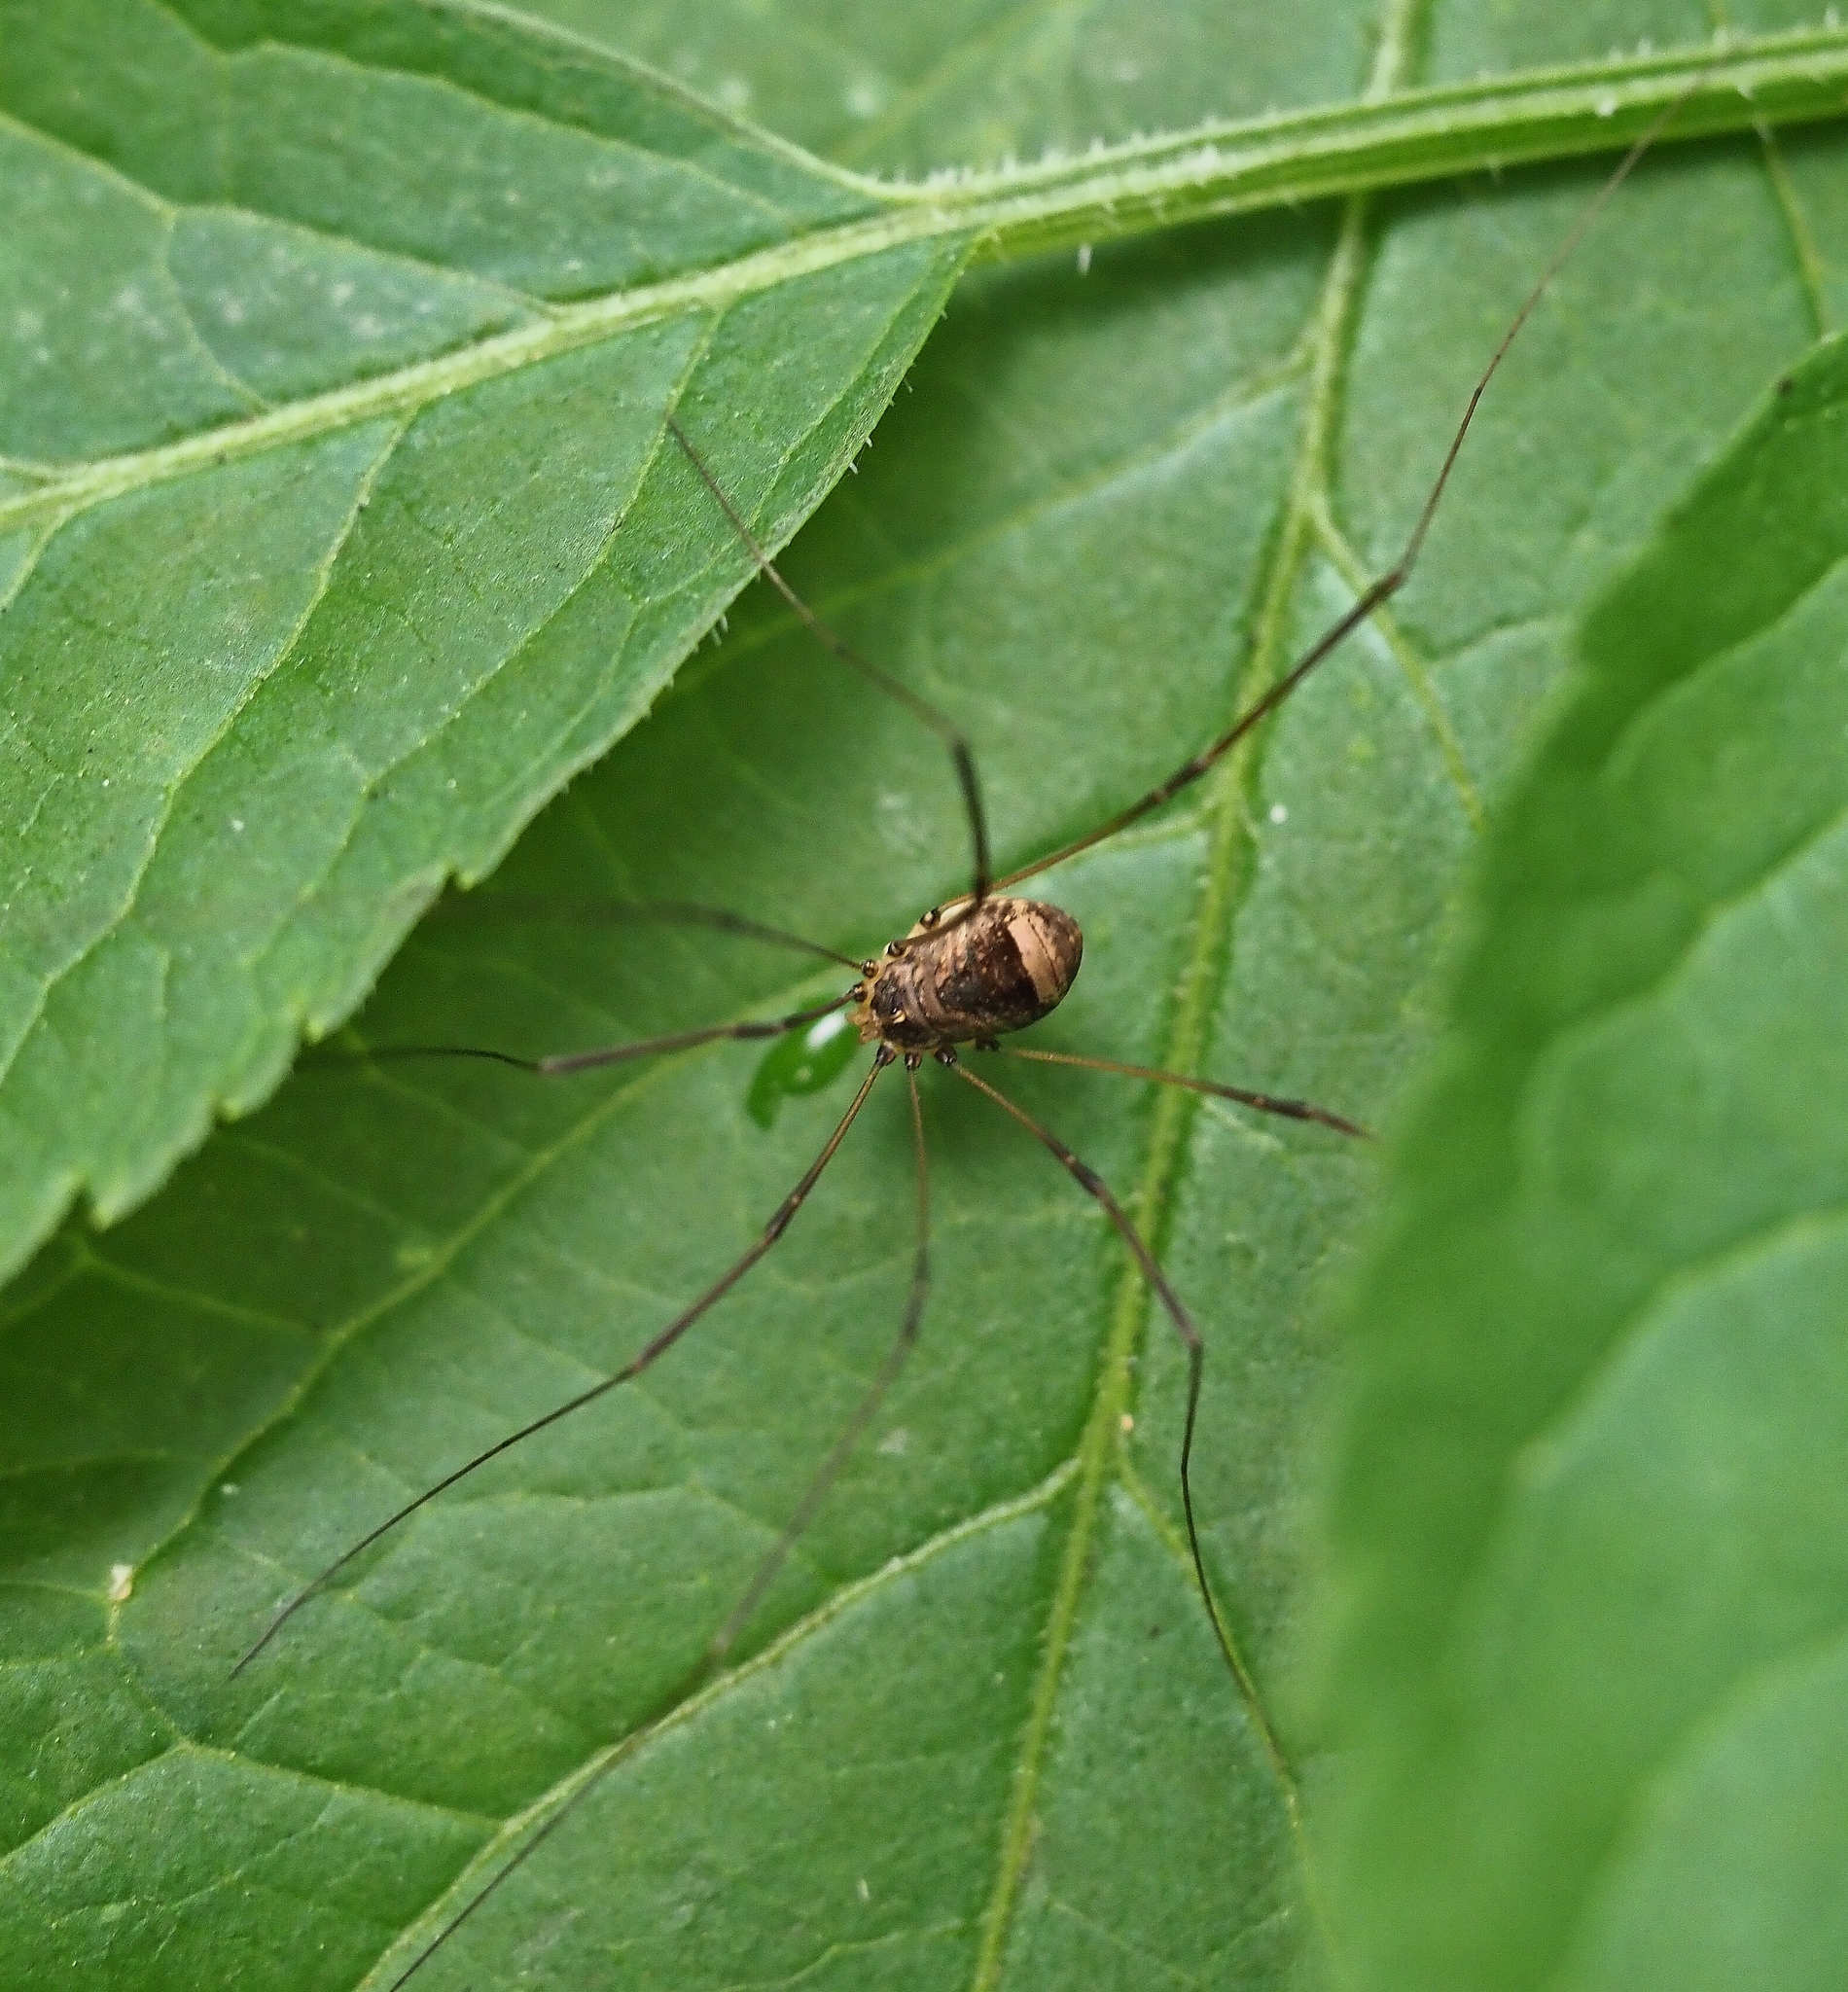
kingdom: Animalia
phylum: Arthropoda
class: Arachnida
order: Opiliones
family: Sclerosomatidae
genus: Leiobunum
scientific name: Leiobunum blackwalli
